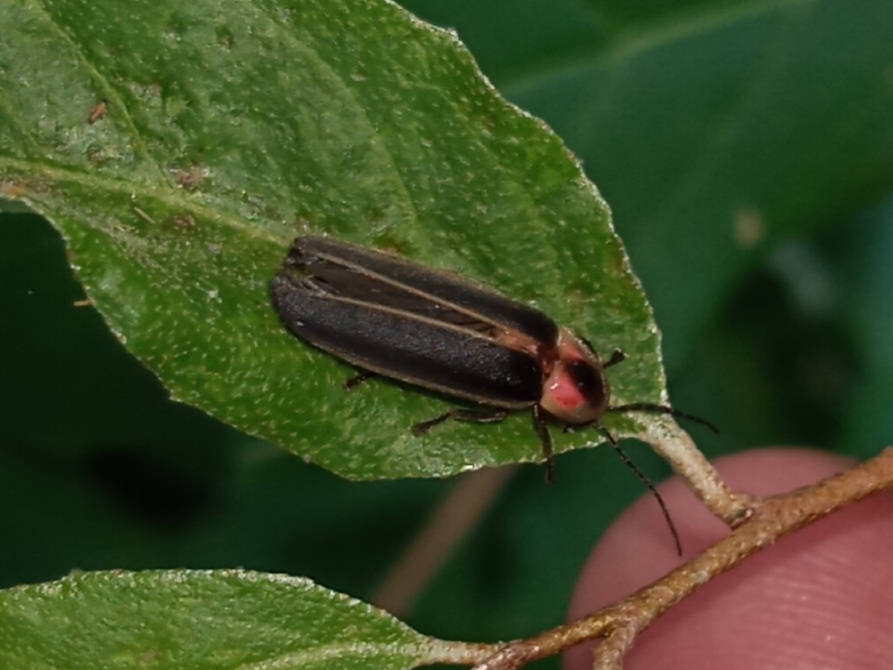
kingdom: Animalia
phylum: Arthropoda
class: Insecta
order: Coleoptera
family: Lampyridae
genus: Photinus
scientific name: Photinus pyralis
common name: Big dipper firefly
